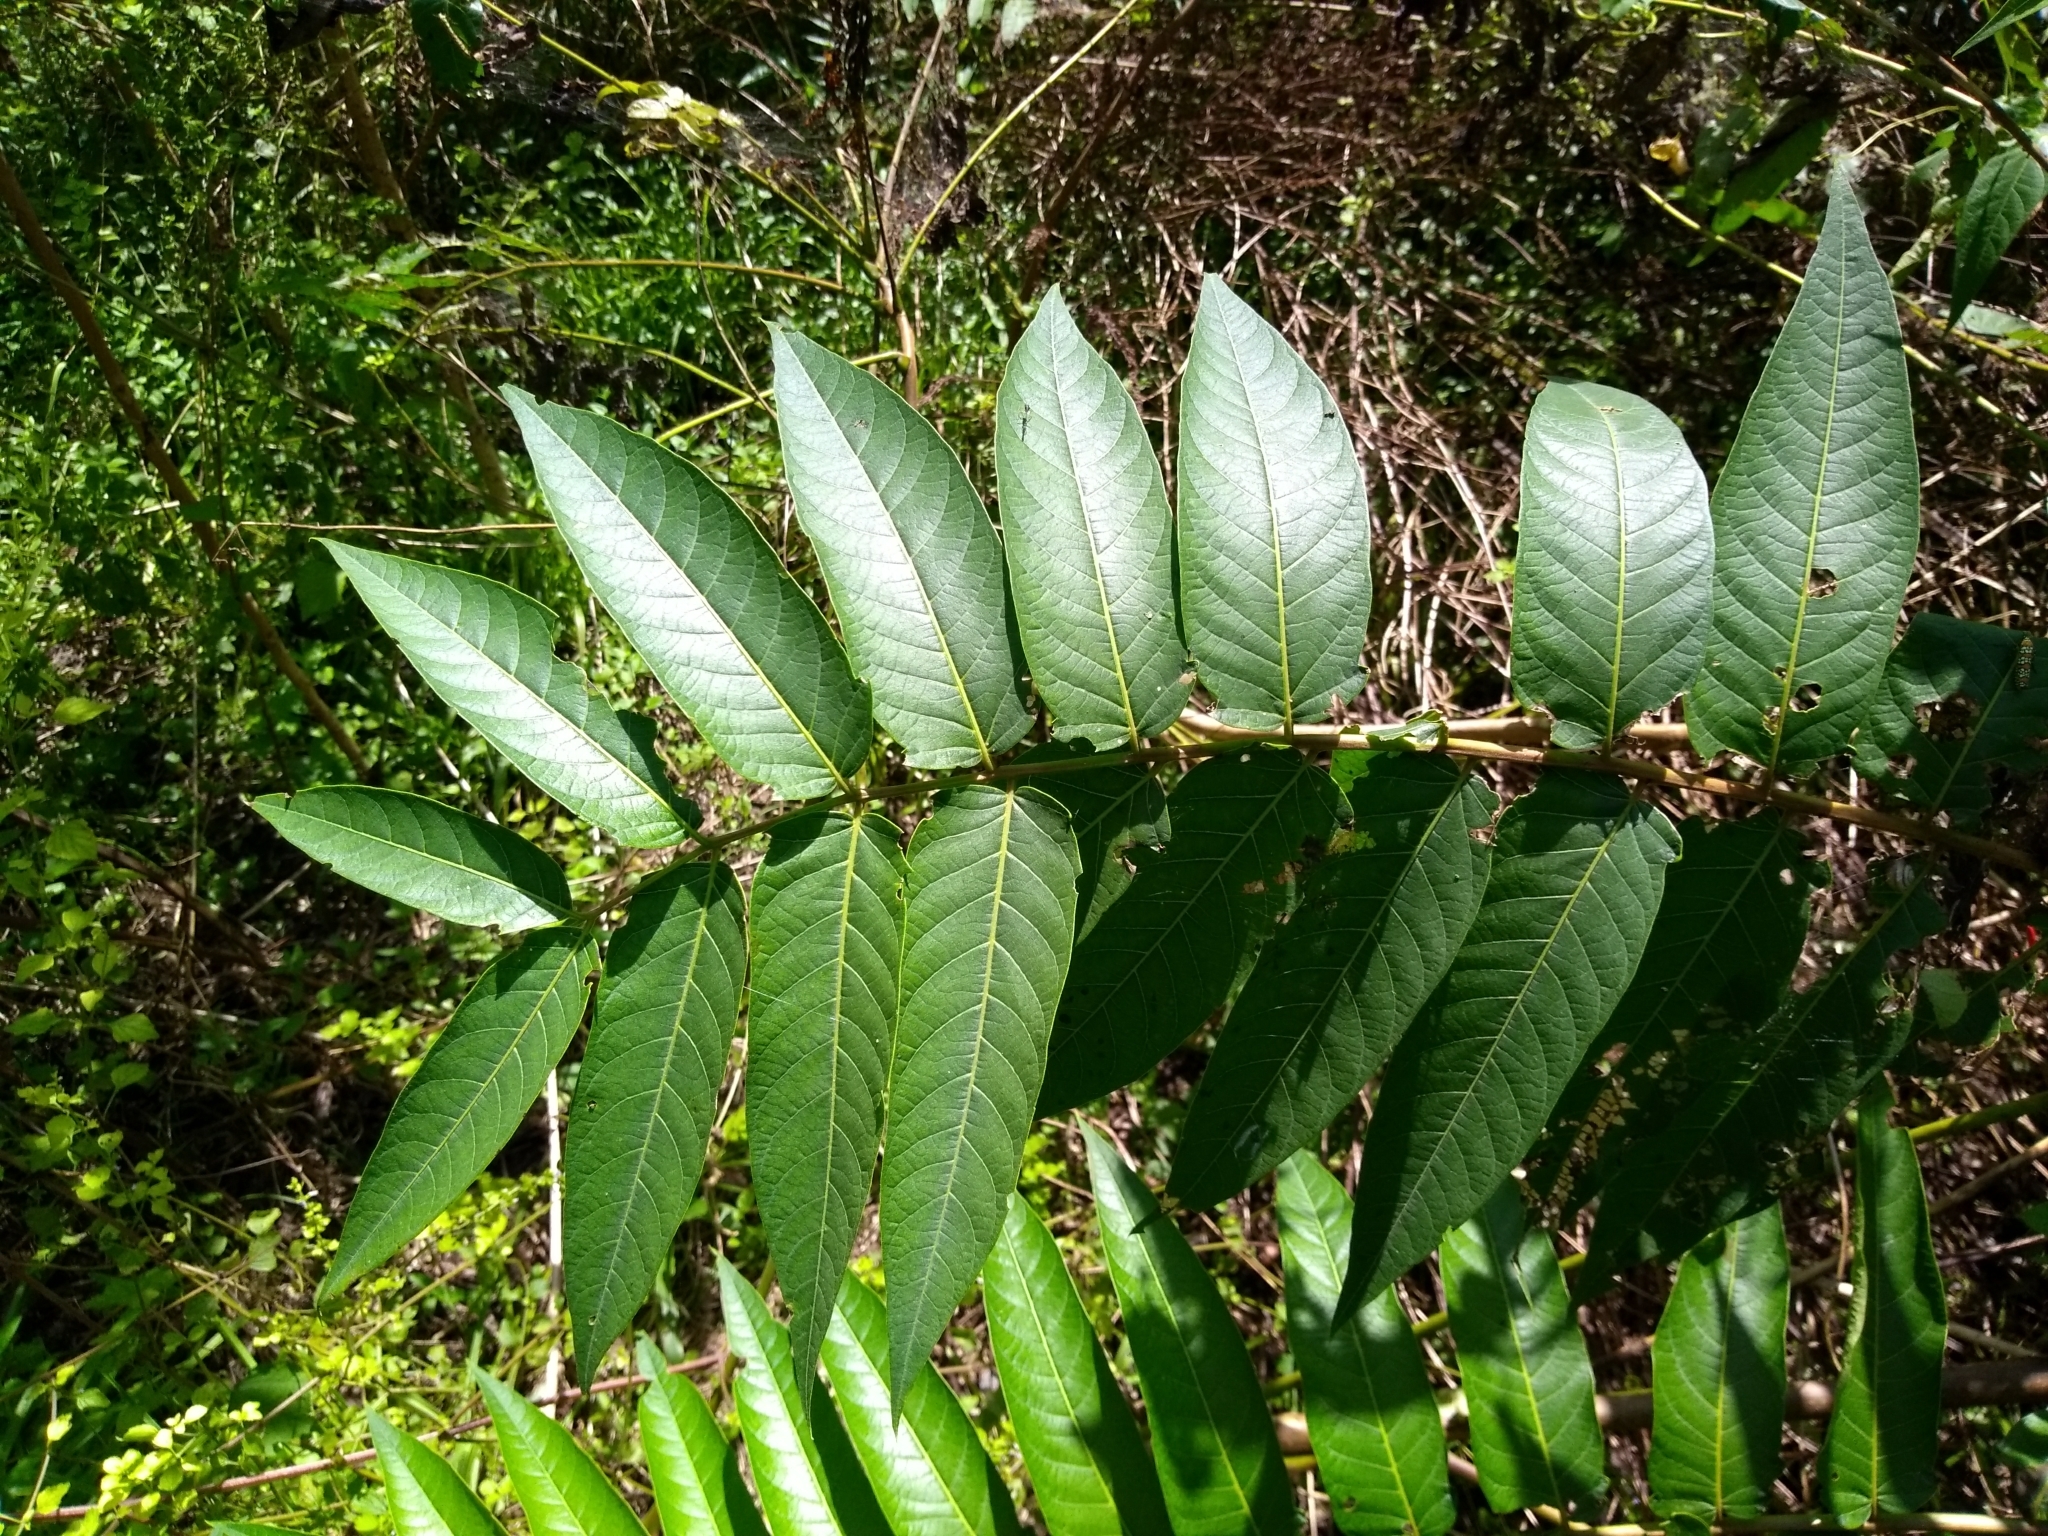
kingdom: Plantae
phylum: Tracheophyta
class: Magnoliopsida
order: Sapindales
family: Simaroubaceae
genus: Ailanthus
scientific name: Ailanthus altissima
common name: Tree-of-heaven
